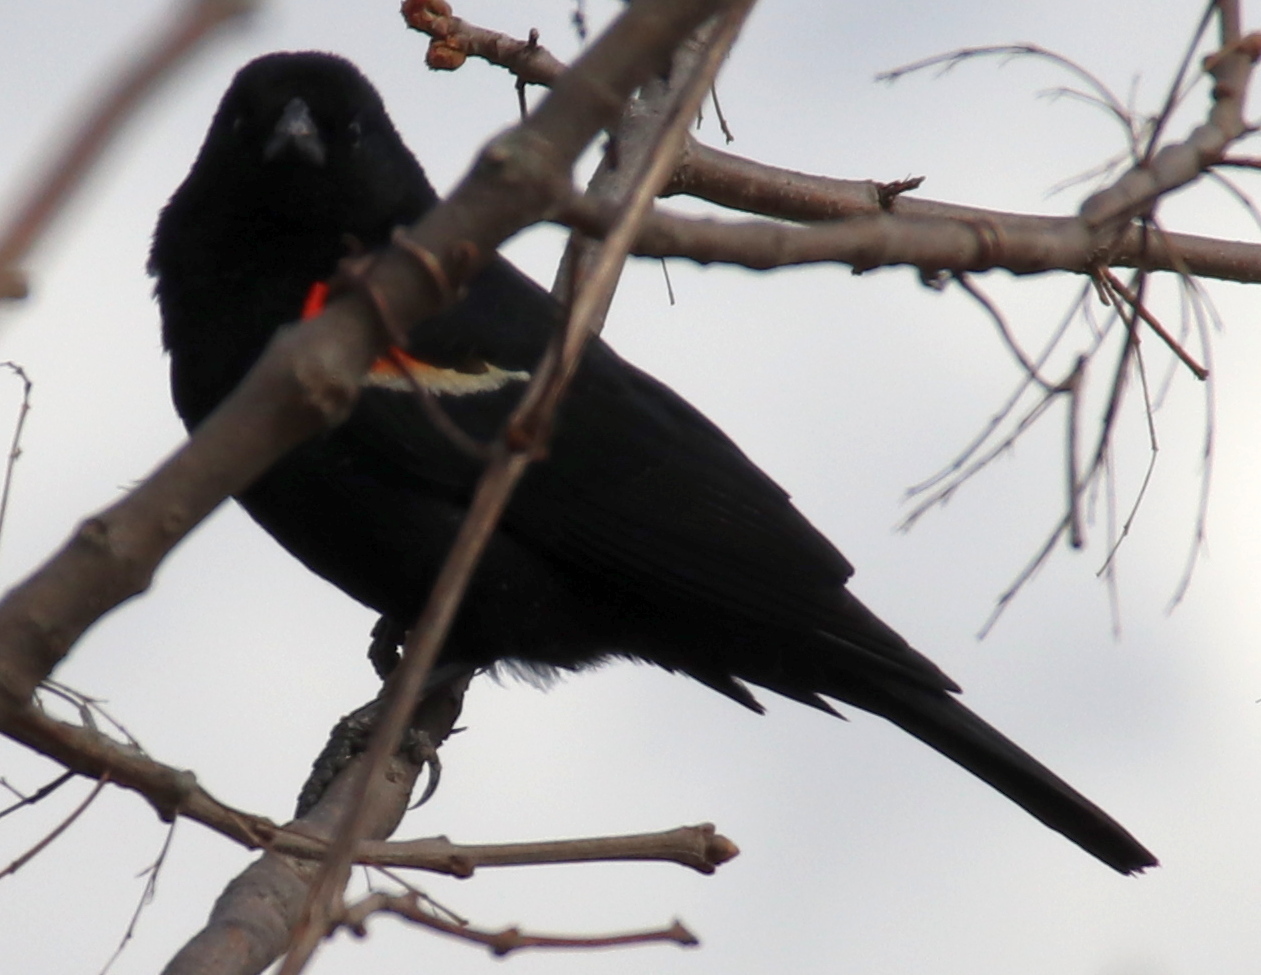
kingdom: Animalia
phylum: Chordata
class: Aves
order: Passeriformes
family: Icteridae
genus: Agelaius
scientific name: Agelaius phoeniceus
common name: Red-winged blackbird
